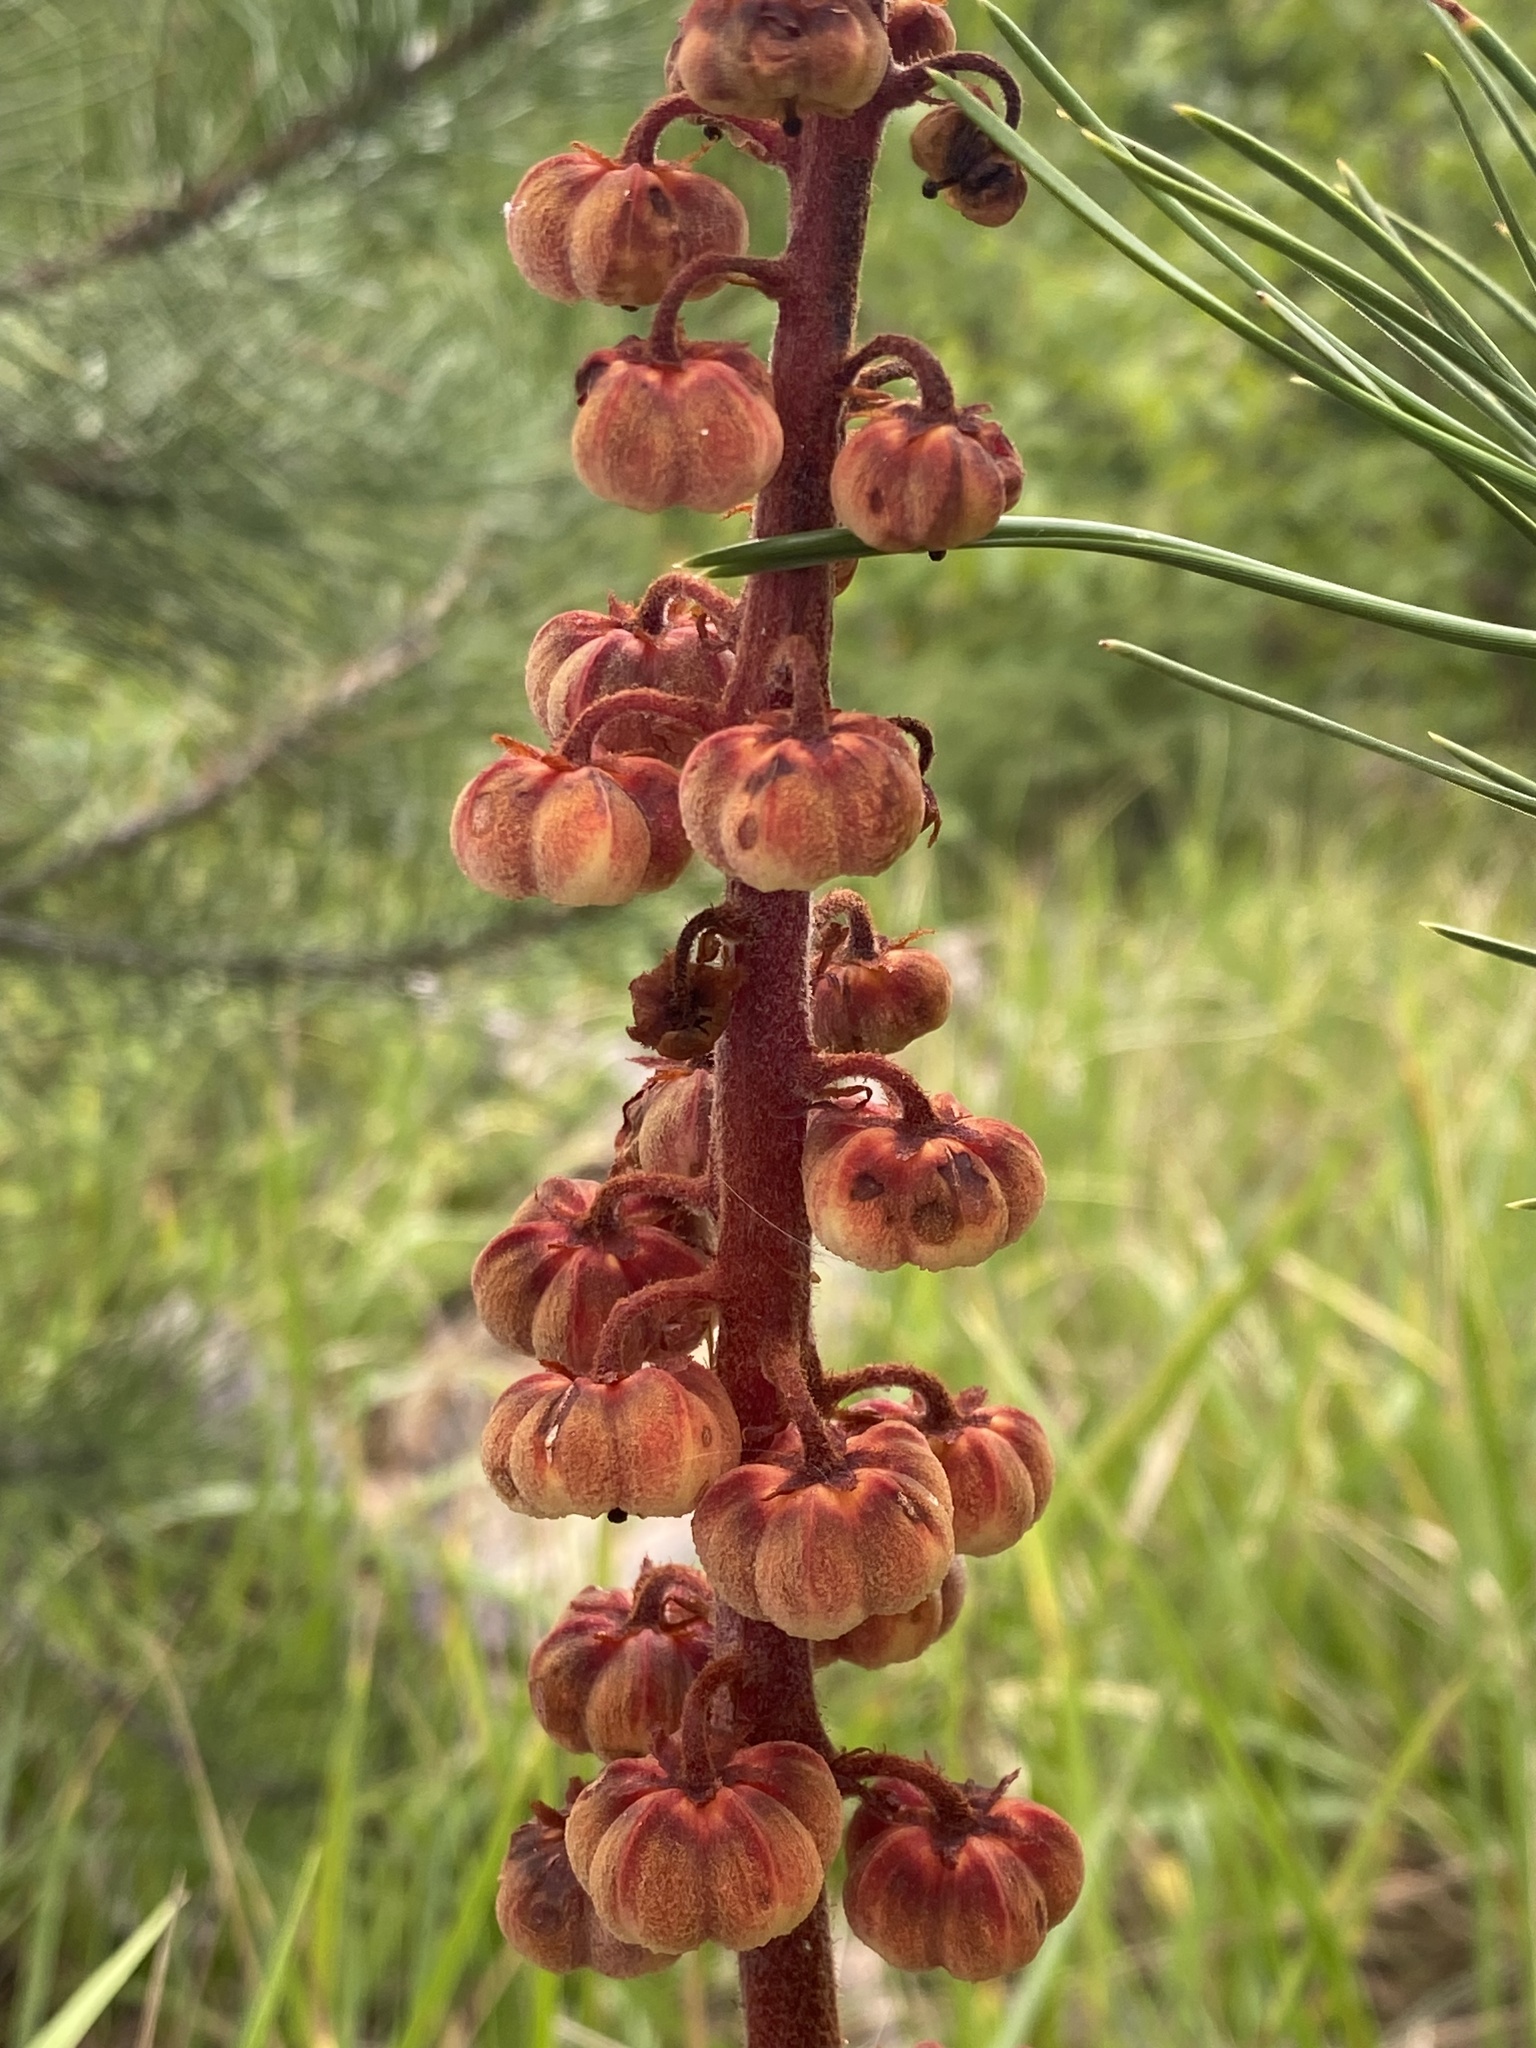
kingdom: Plantae
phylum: Tracheophyta
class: Magnoliopsida
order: Ericales
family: Ericaceae
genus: Pterospora
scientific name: Pterospora andromedea
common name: Giant bird's-nest
